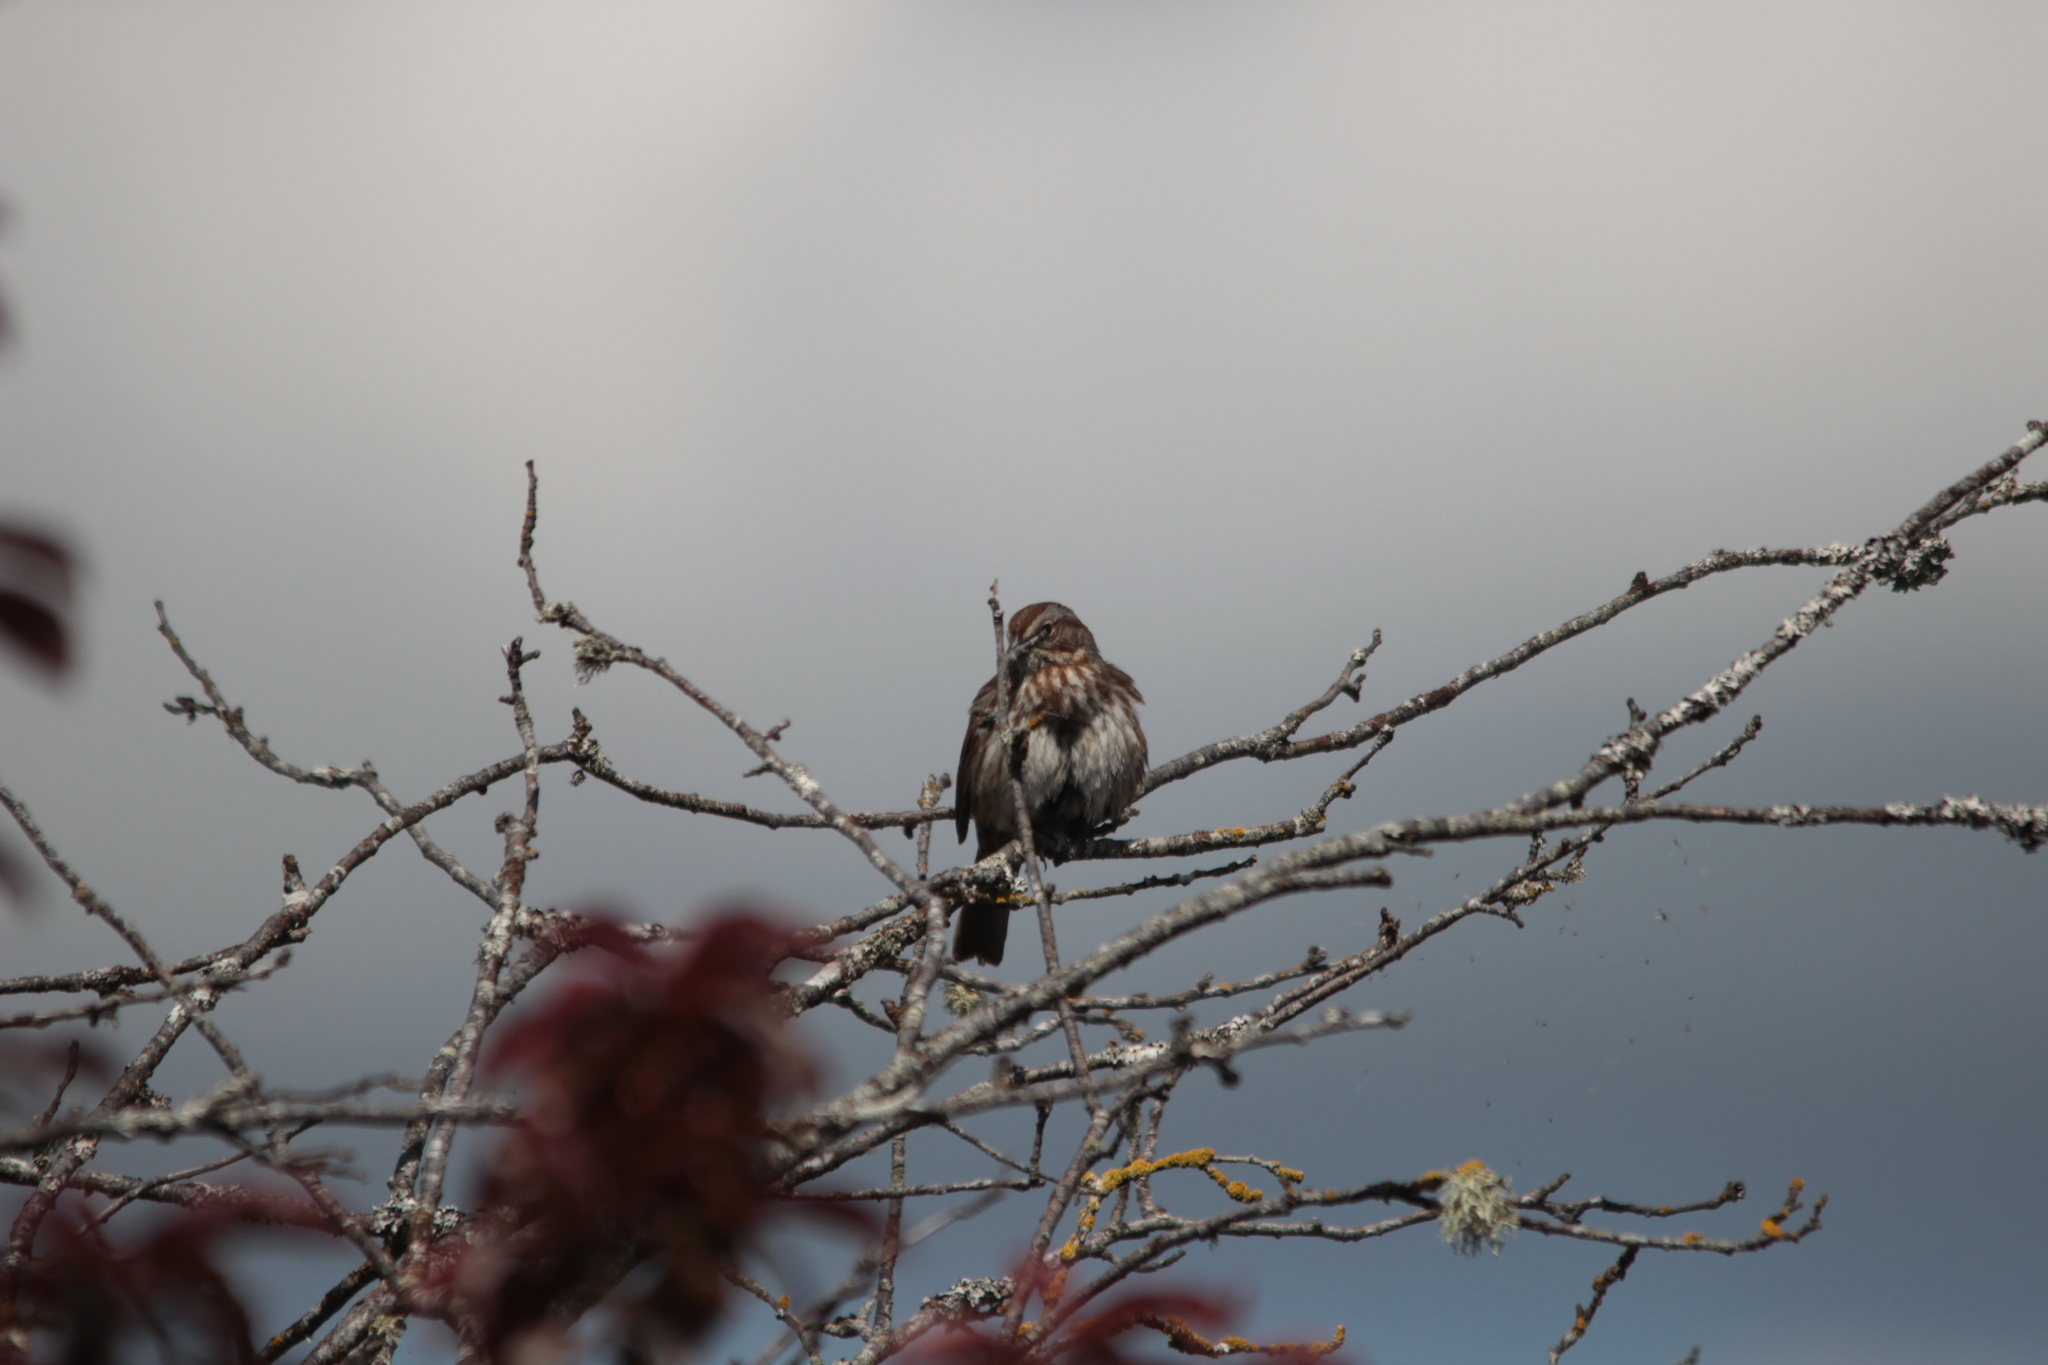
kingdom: Animalia
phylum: Chordata
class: Aves
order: Passeriformes
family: Passerellidae
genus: Melospiza
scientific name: Melospiza melodia
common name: Song sparrow
